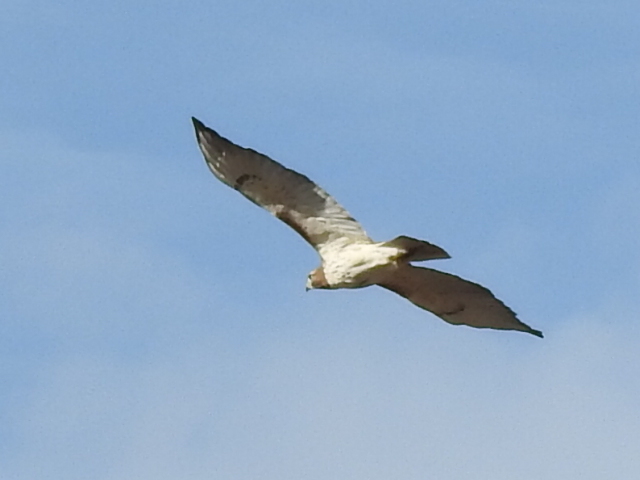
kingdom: Animalia
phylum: Chordata
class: Aves
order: Accipitriformes
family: Accipitridae
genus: Buteo
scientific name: Buteo jamaicensis
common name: Red-tailed hawk
